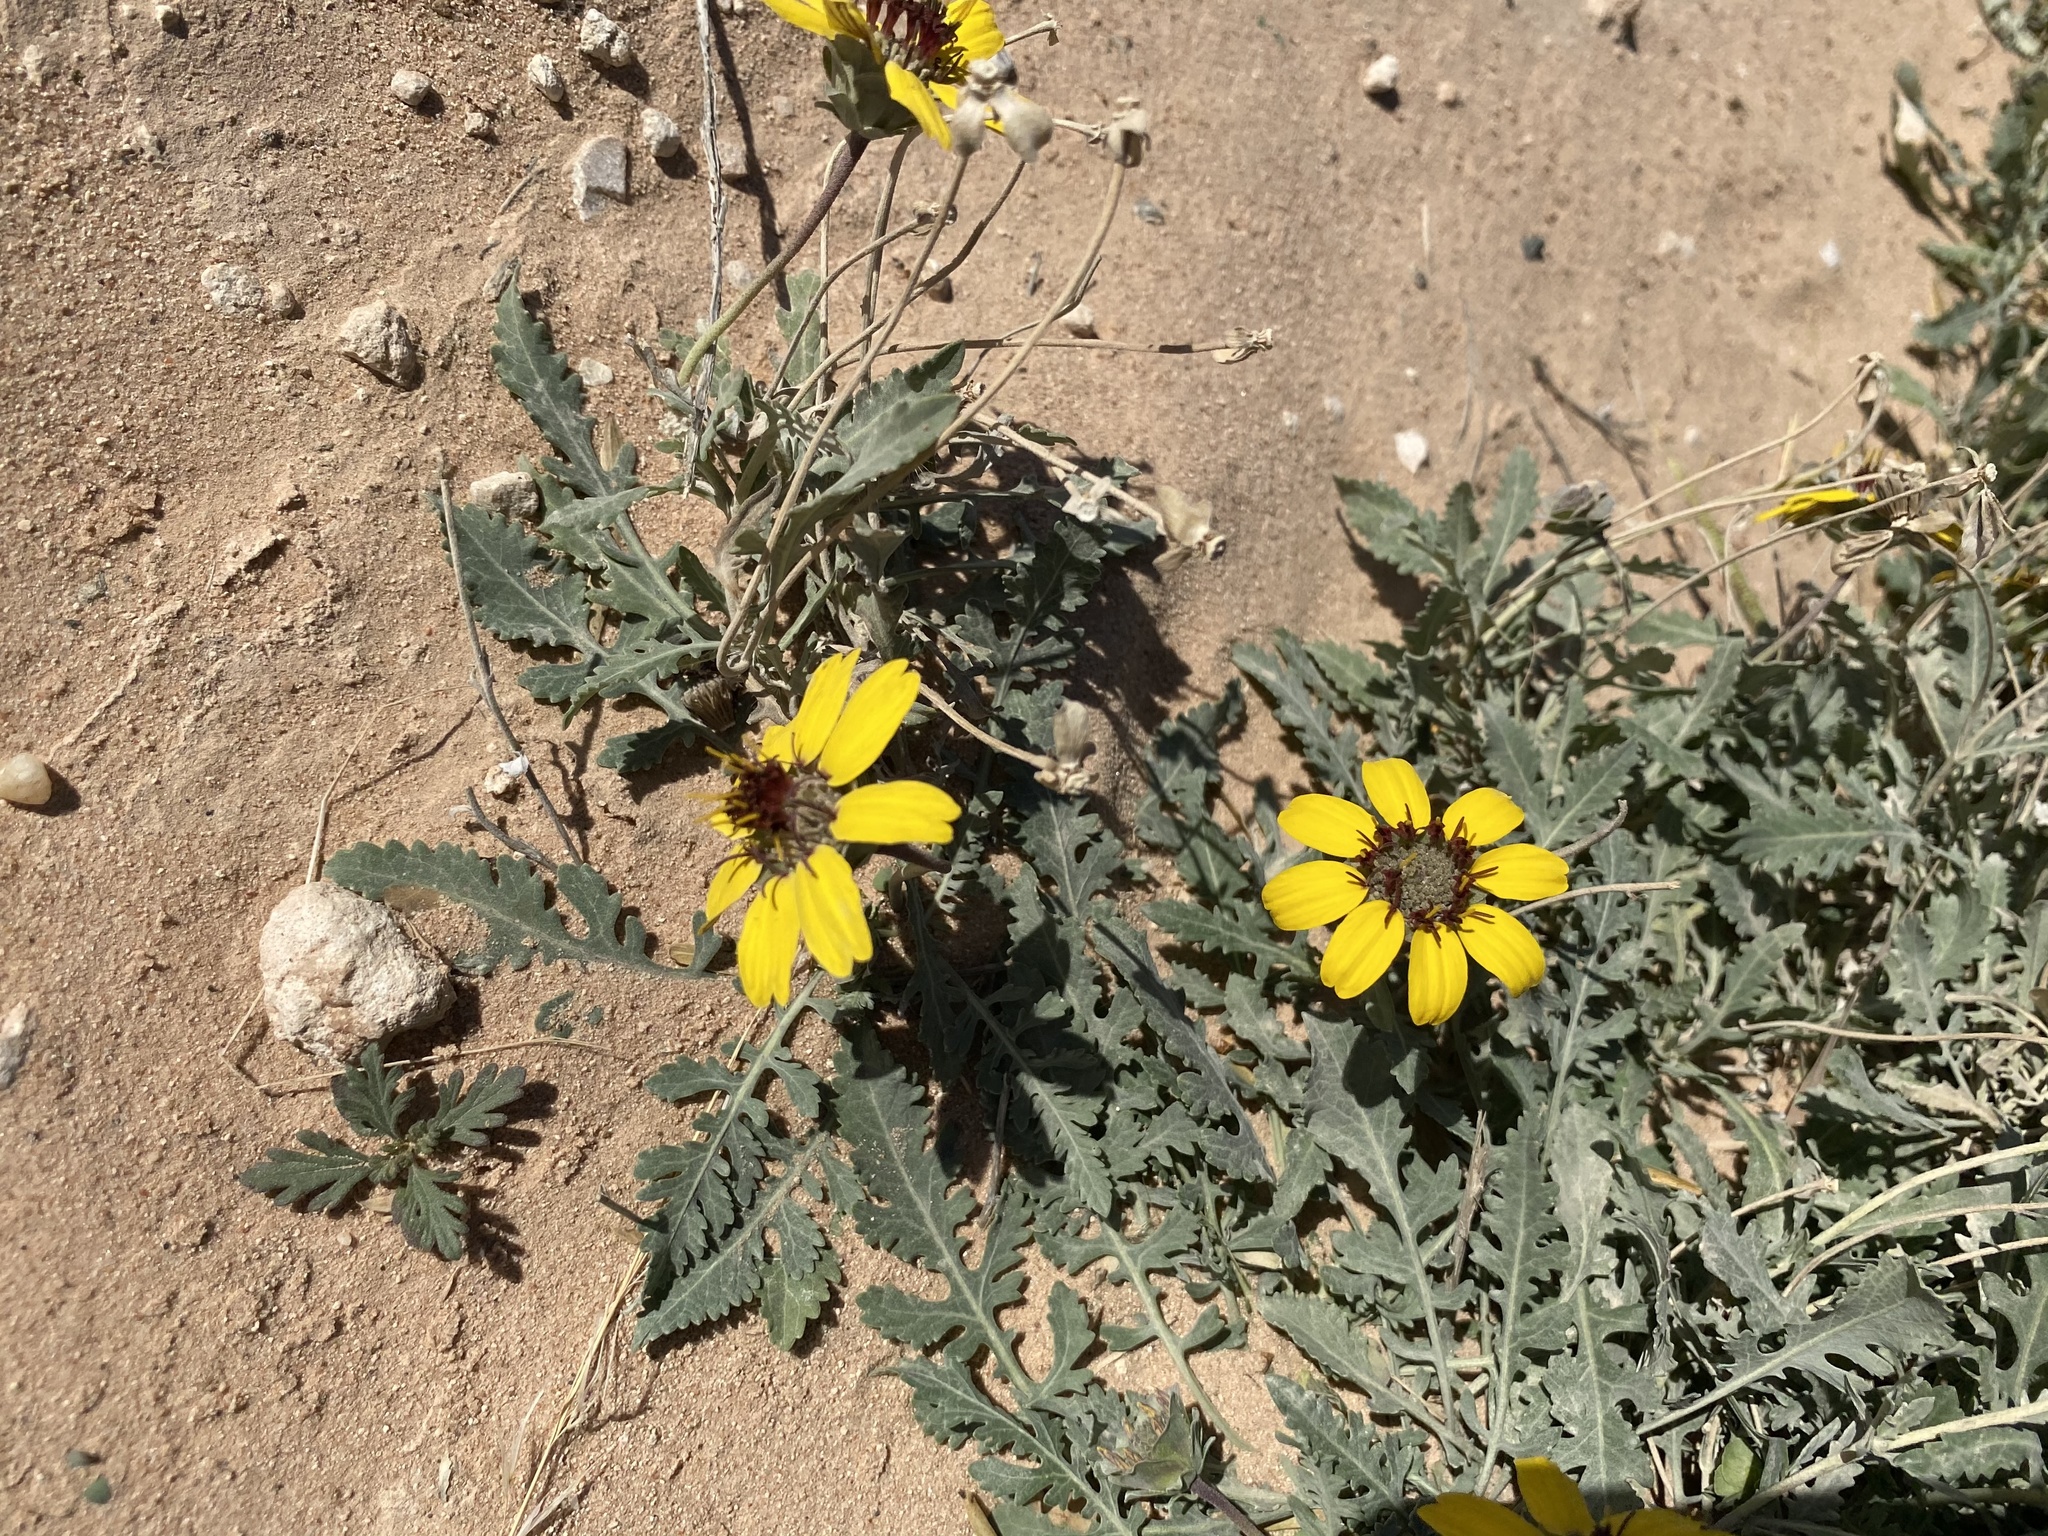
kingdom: Plantae
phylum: Tracheophyta
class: Magnoliopsida
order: Asterales
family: Asteraceae
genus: Berlandiera
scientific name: Berlandiera lyrata
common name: Chocolate-flower
